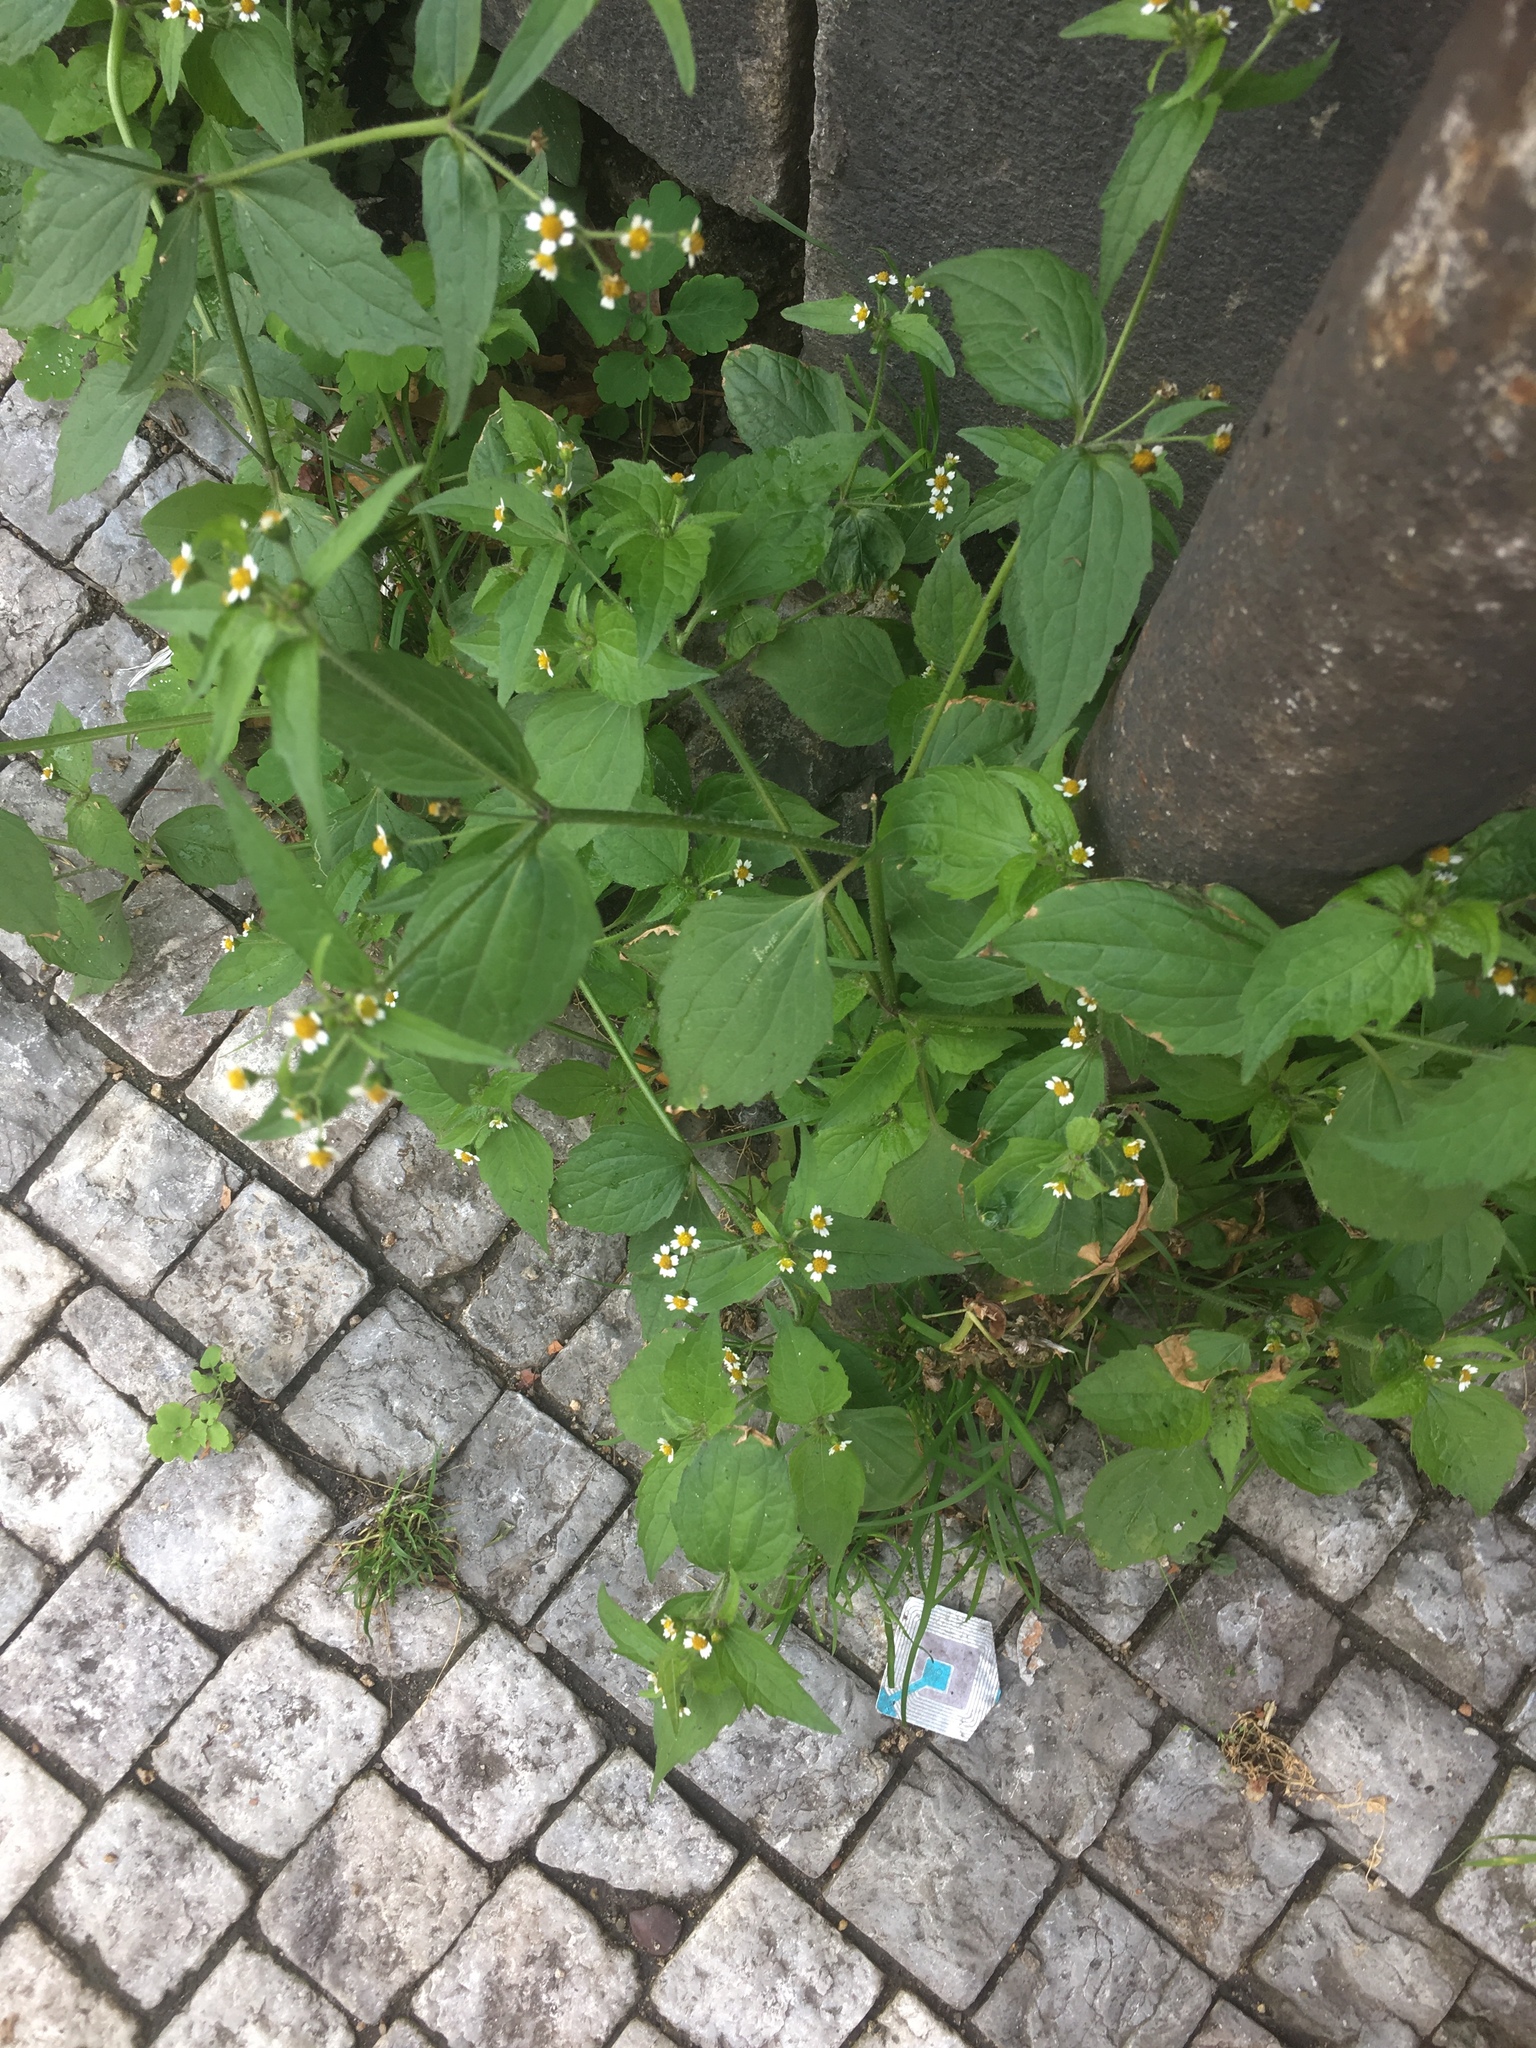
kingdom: Plantae
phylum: Tracheophyta
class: Magnoliopsida
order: Asterales
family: Asteraceae
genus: Galinsoga
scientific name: Galinsoga quadriradiata
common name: Shaggy soldier
